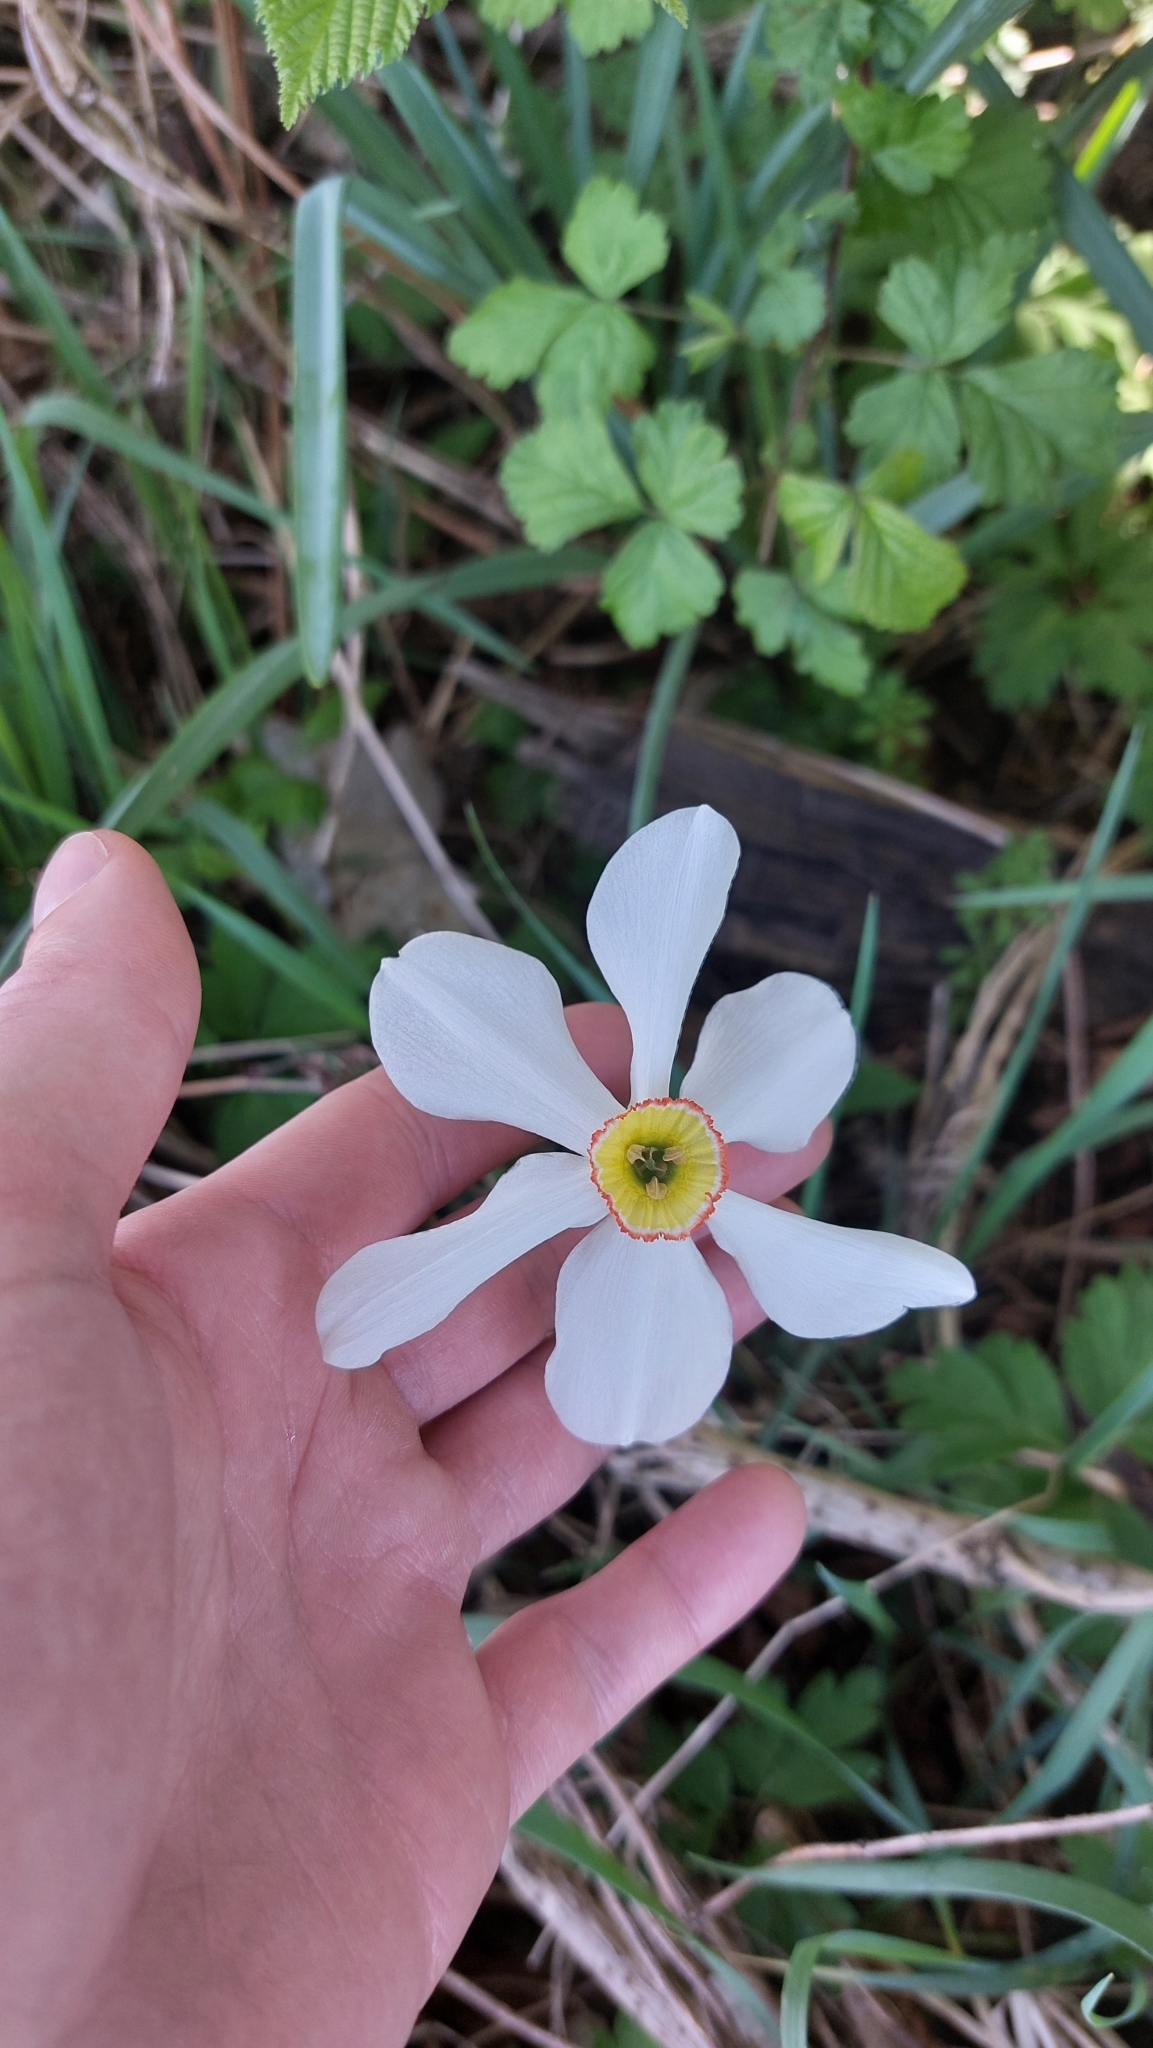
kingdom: Plantae
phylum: Tracheophyta
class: Liliopsida
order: Asparagales
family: Amaryllidaceae
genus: Narcissus
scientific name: Narcissus poeticus
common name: Pheasant's-eye daffodil
